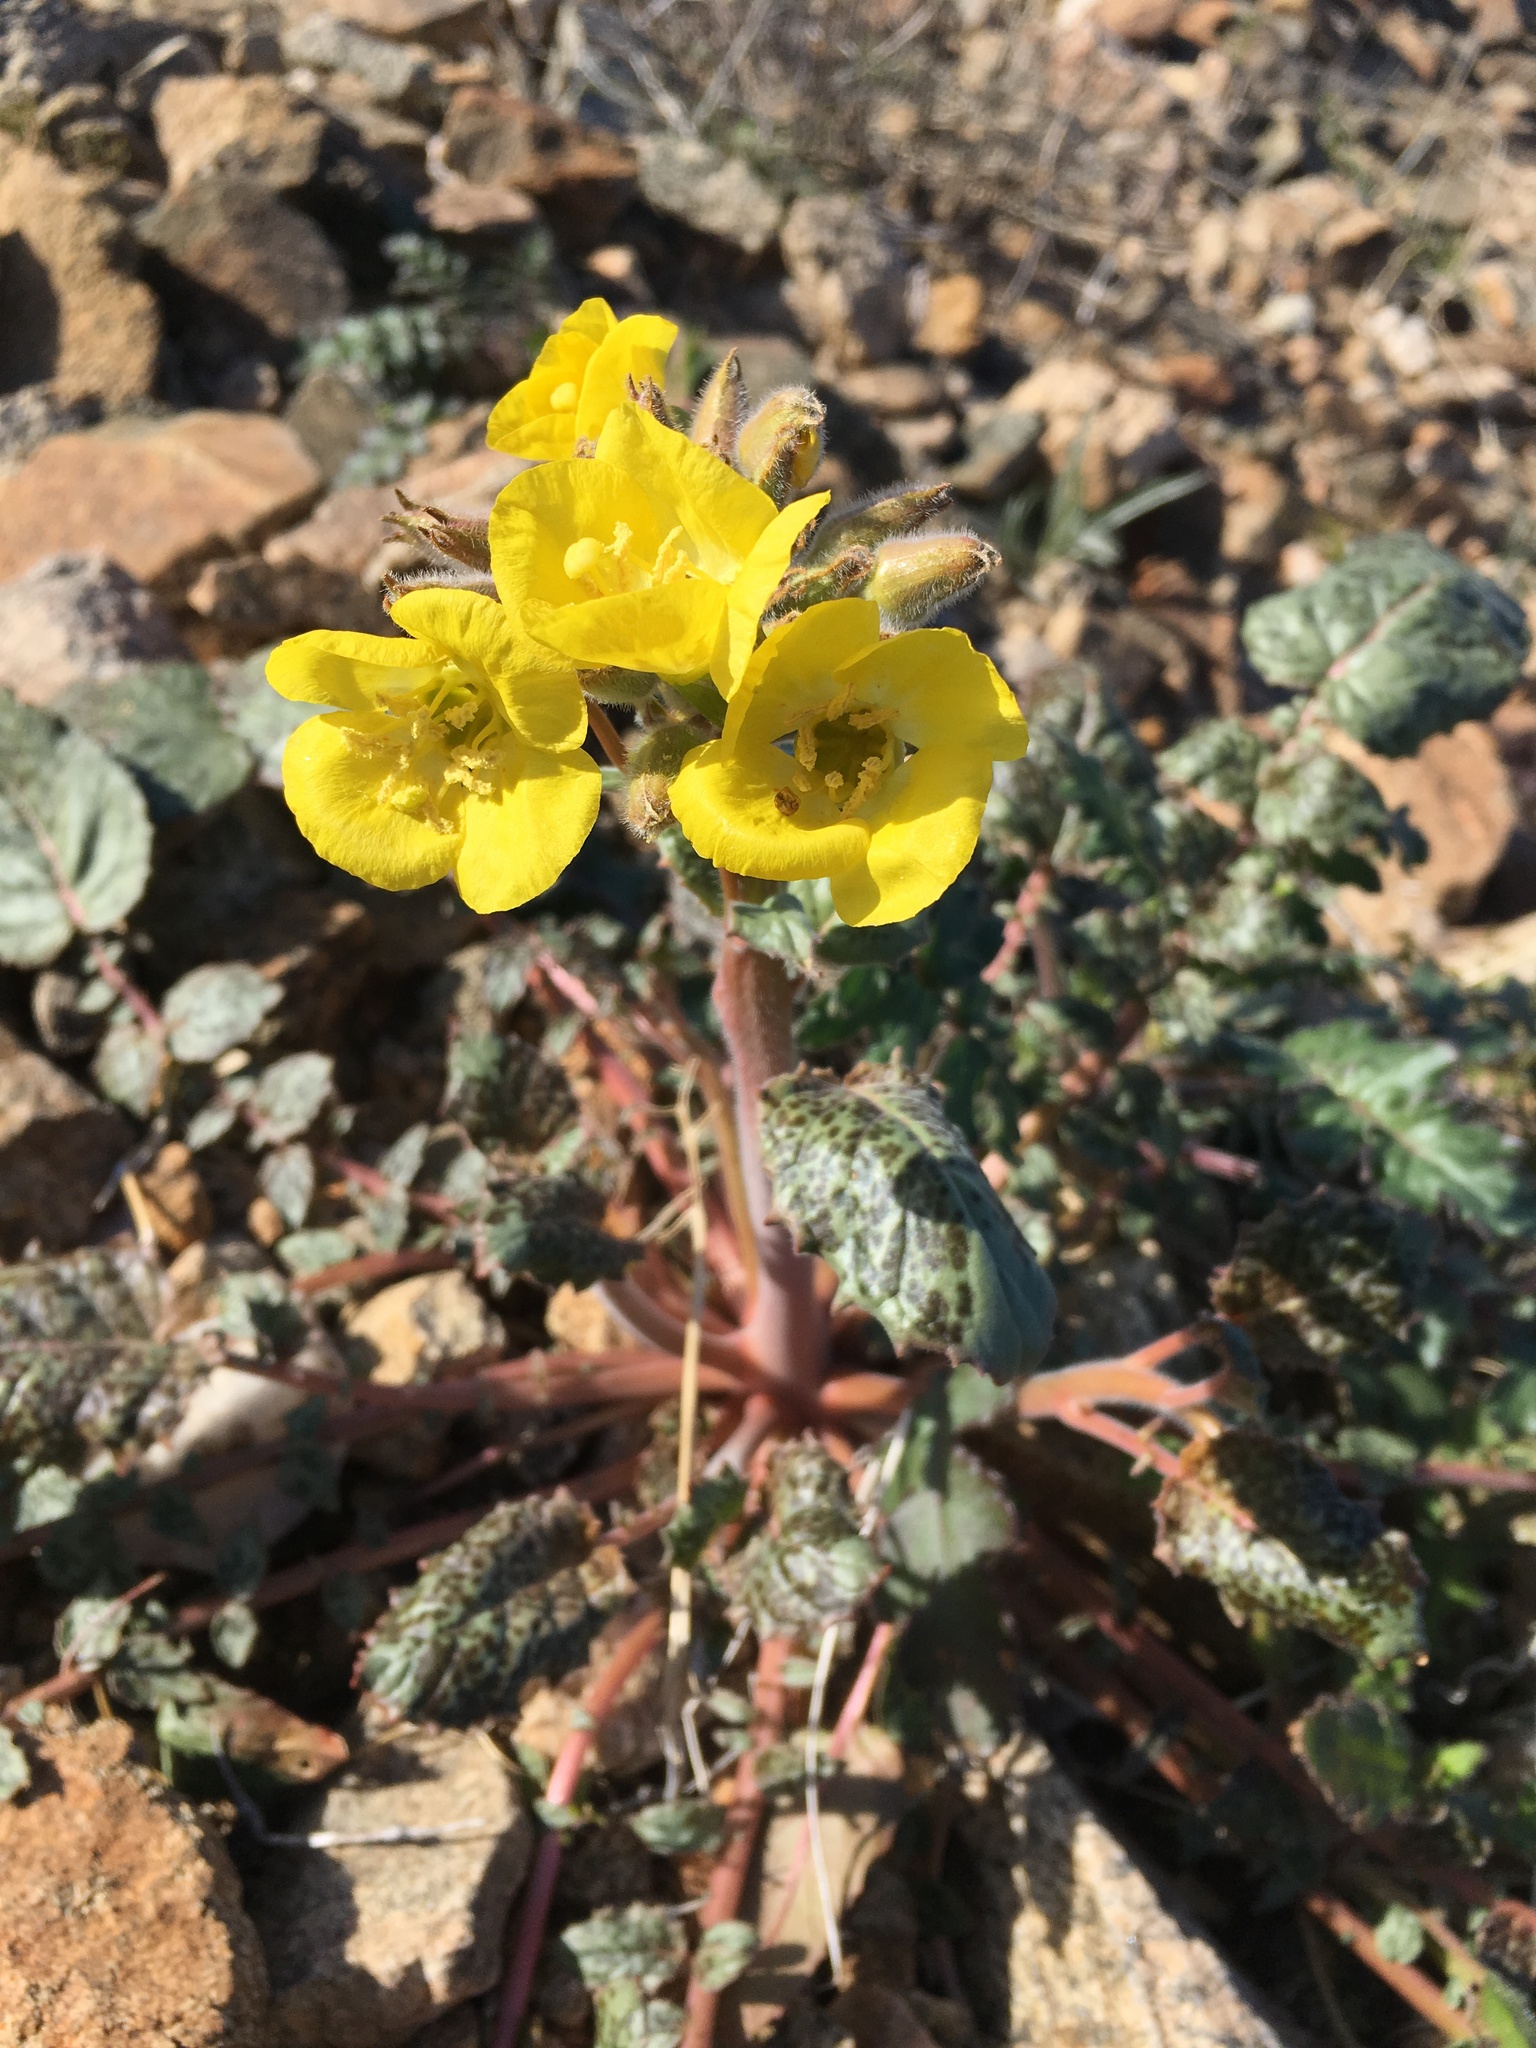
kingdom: Plantae
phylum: Tracheophyta
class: Magnoliopsida
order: Myrtales
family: Onagraceae
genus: Chylismia
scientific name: Chylismia brevipes
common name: Yellow cups
